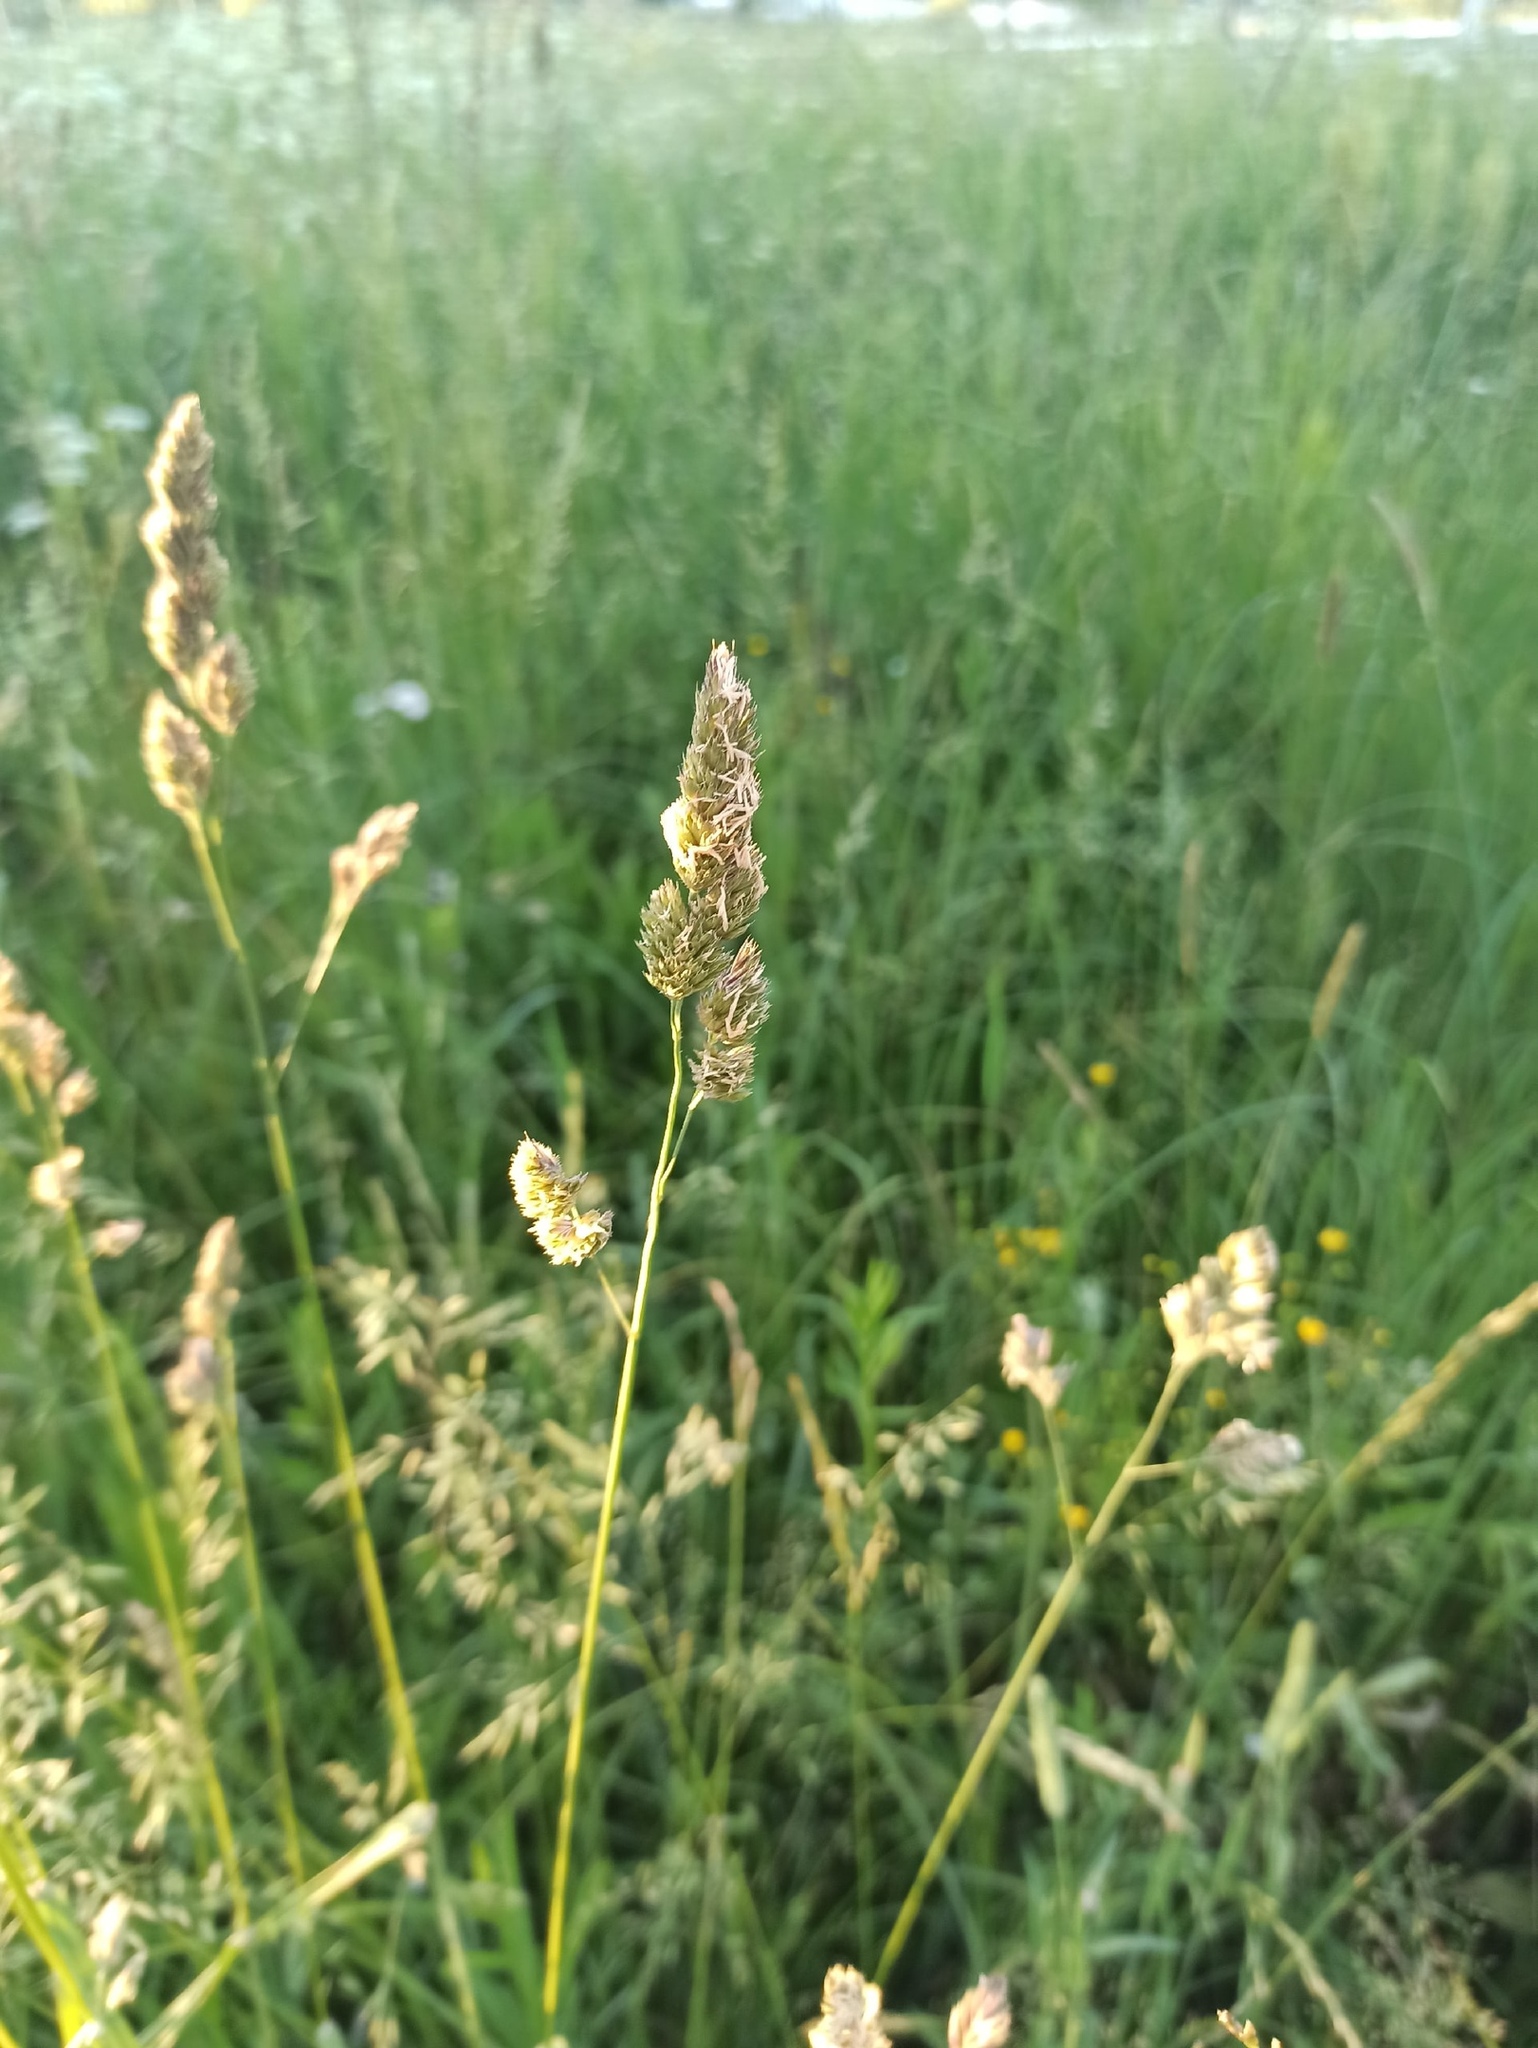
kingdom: Plantae
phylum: Tracheophyta
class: Liliopsida
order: Poales
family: Poaceae
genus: Dactylis
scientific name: Dactylis glomerata
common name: Orchardgrass
